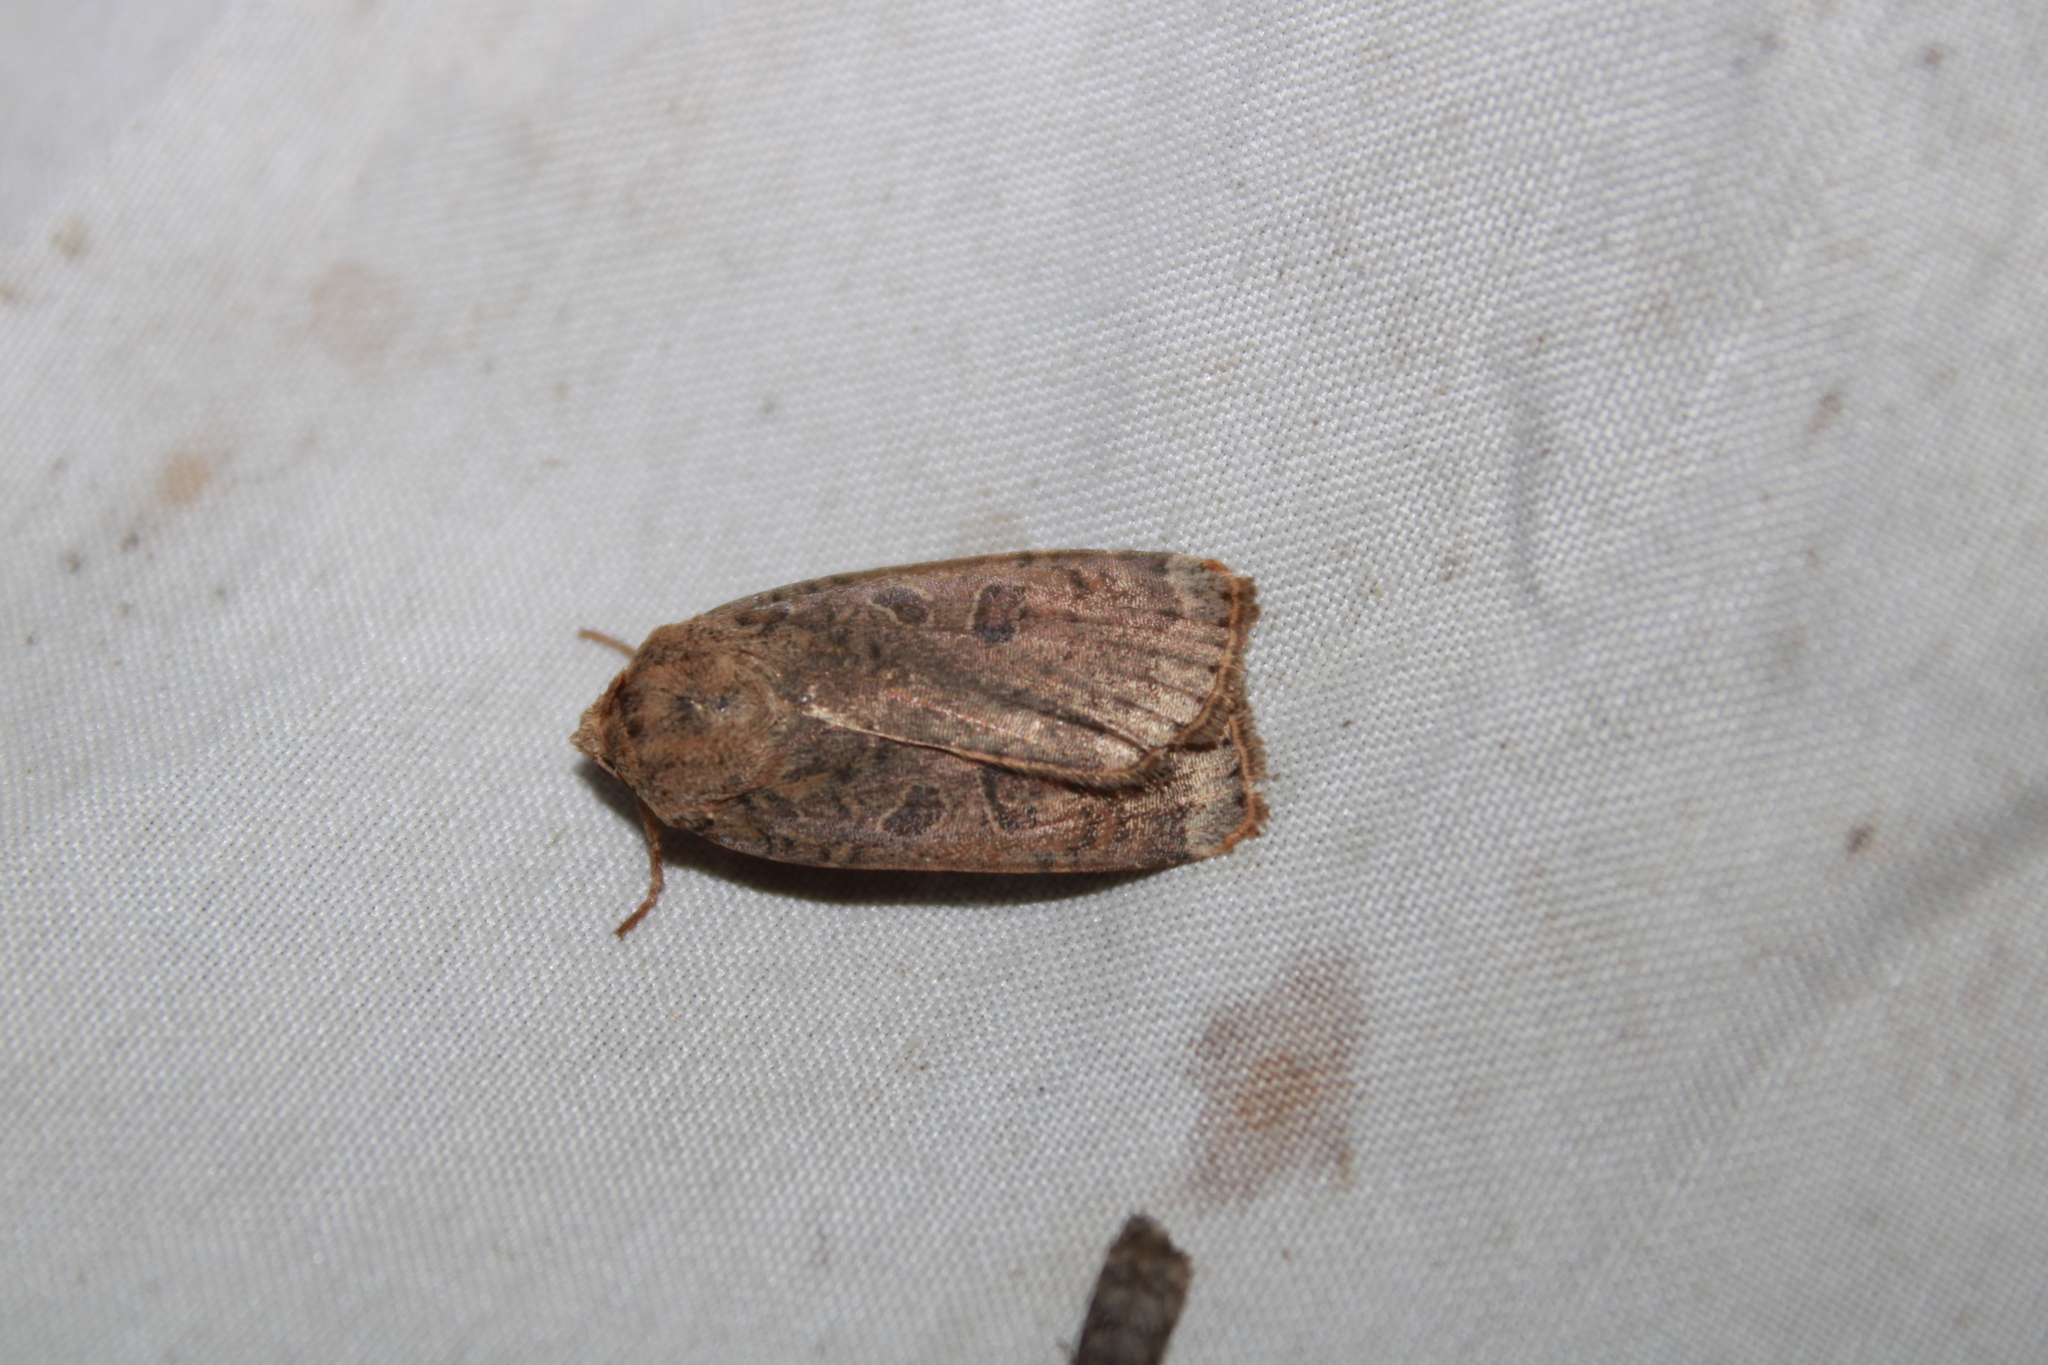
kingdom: Animalia
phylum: Arthropoda
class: Insecta
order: Lepidoptera
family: Noctuidae
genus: Abagrotis
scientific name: Abagrotis alternata
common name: Greater red dart
